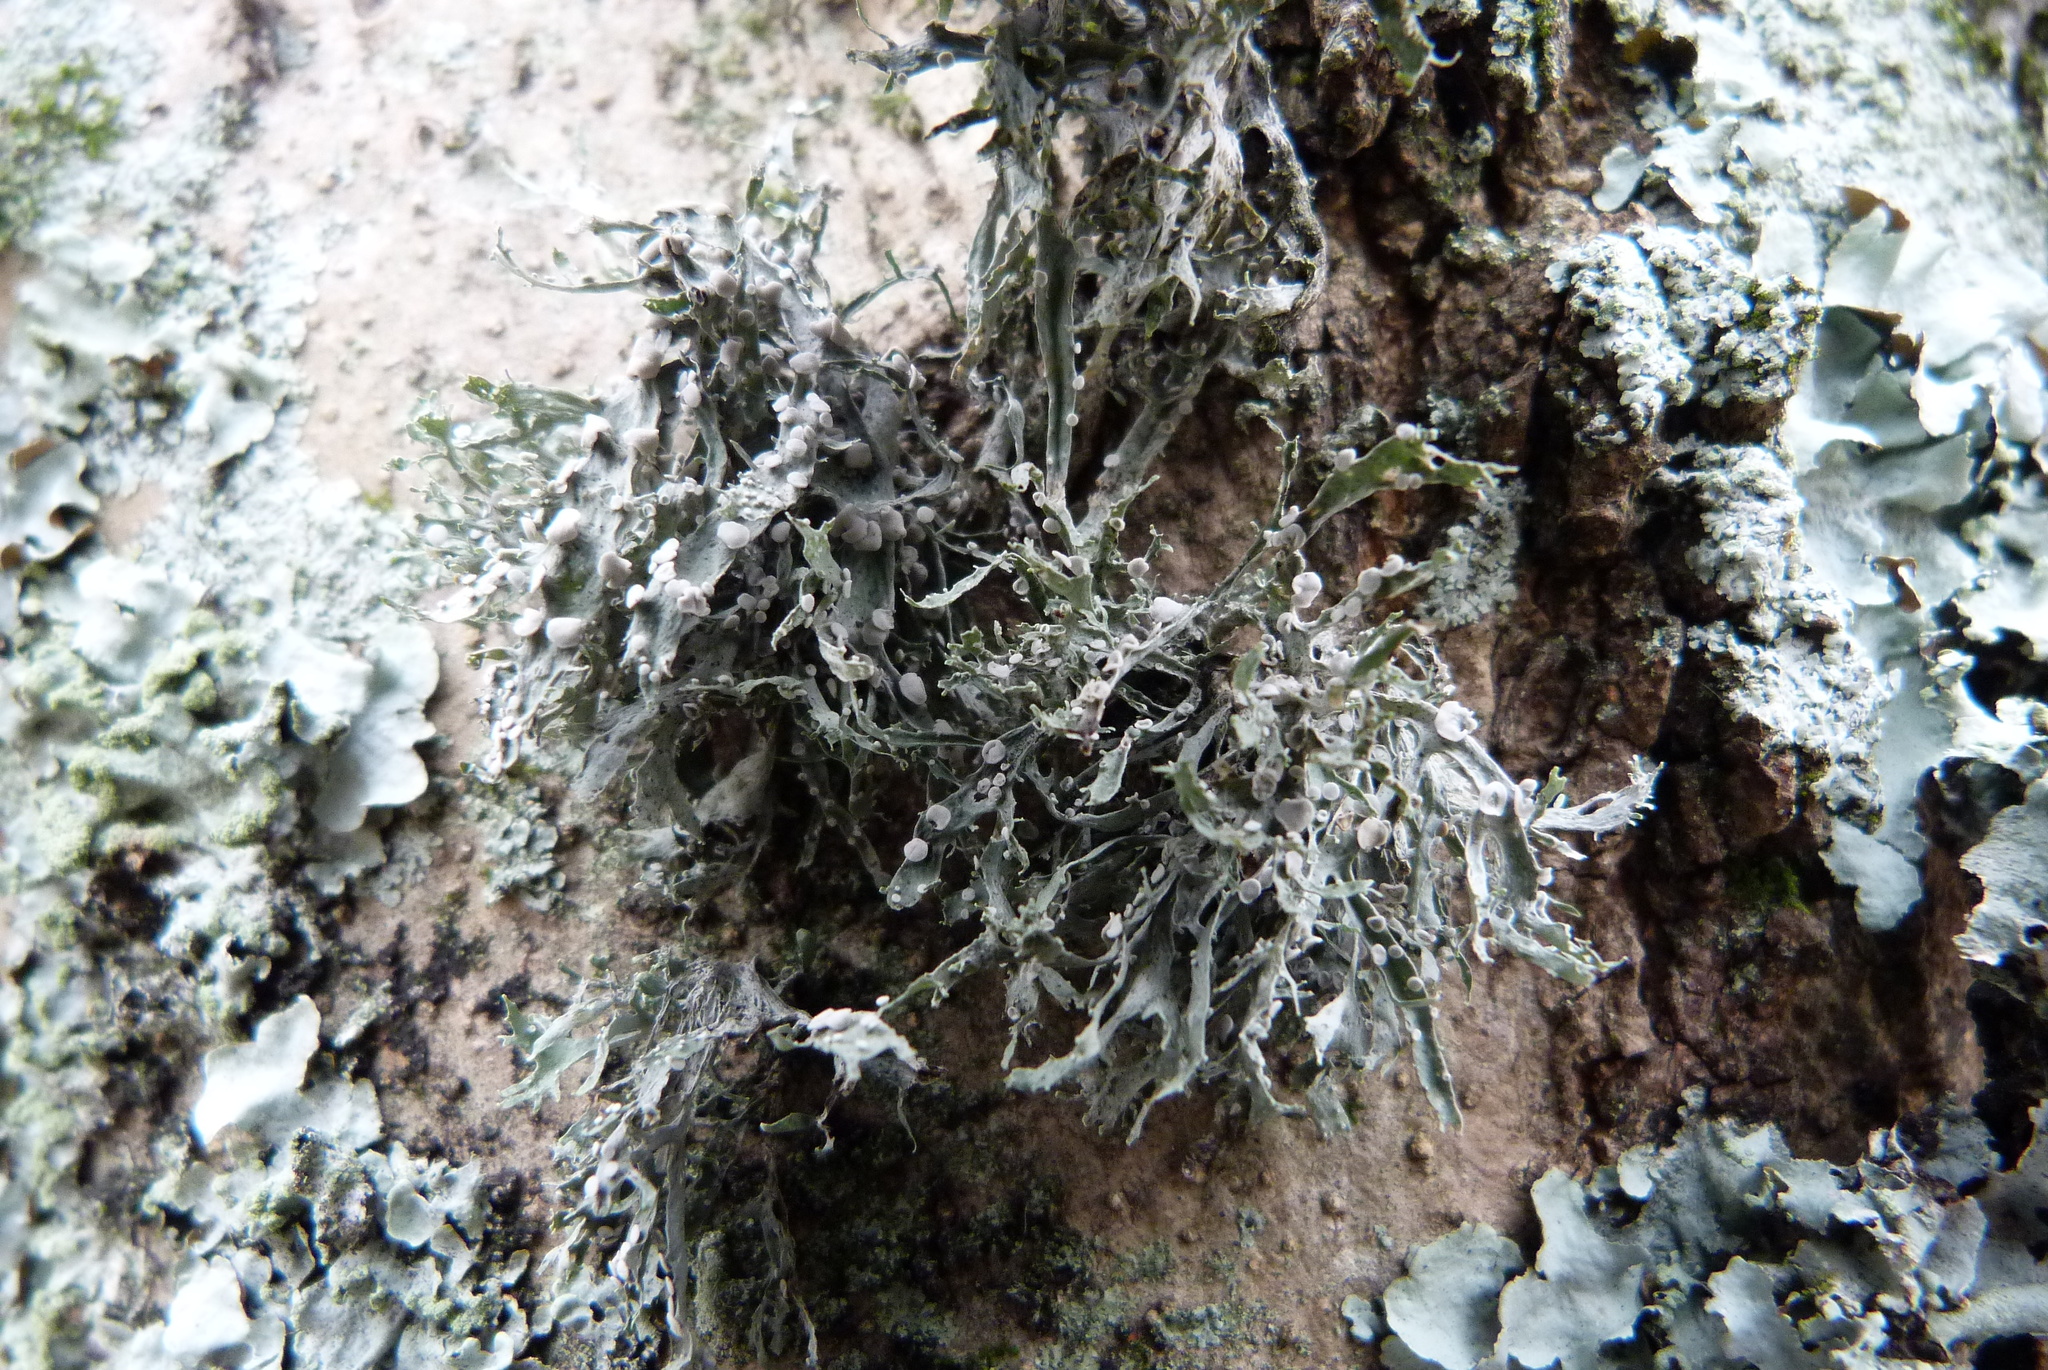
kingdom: Fungi
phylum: Ascomycota
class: Lecanoromycetes
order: Lecanorales
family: Ramalinaceae
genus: Ramalina
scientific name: Ramalina celastri
